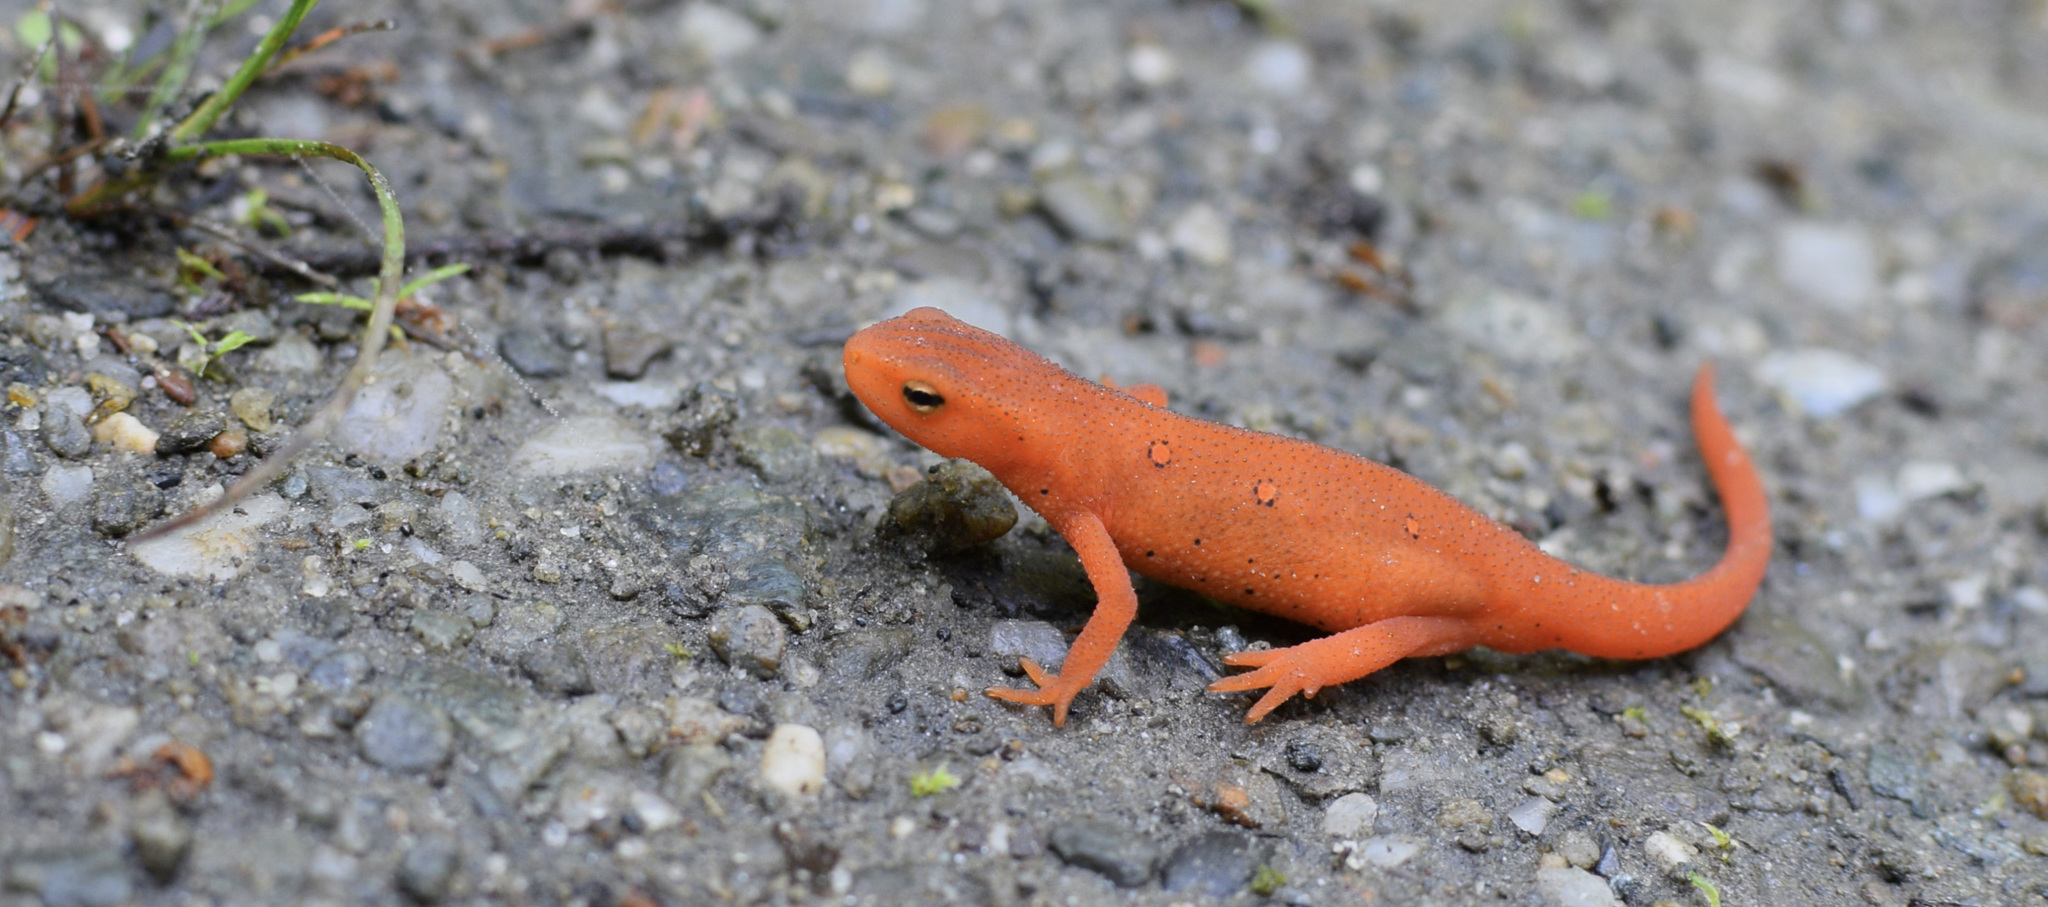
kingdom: Animalia
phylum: Chordata
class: Amphibia
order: Caudata
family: Salamandridae
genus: Notophthalmus
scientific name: Notophthalmus viridescens
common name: Eastern newt
